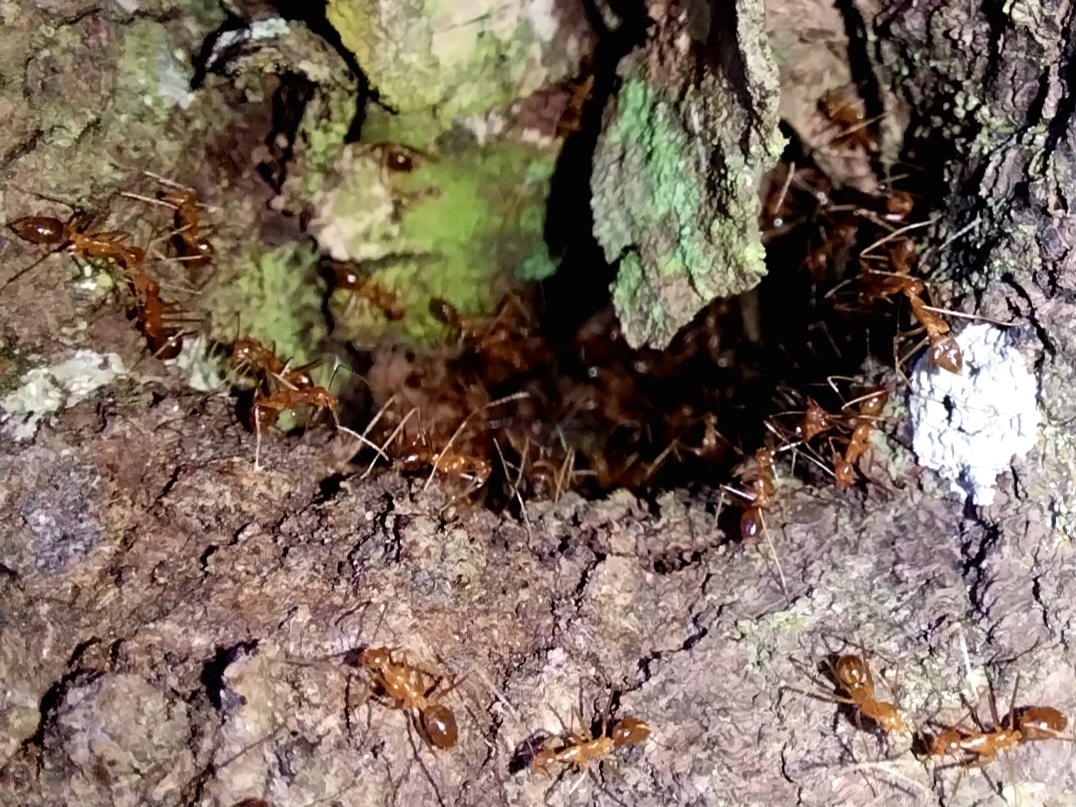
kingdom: Animalia
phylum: Arthropoda
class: Insecta
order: Hymenoptera
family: Formicidae
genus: Anoplolepis
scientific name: Anoplolepis gracilipes
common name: Ant
